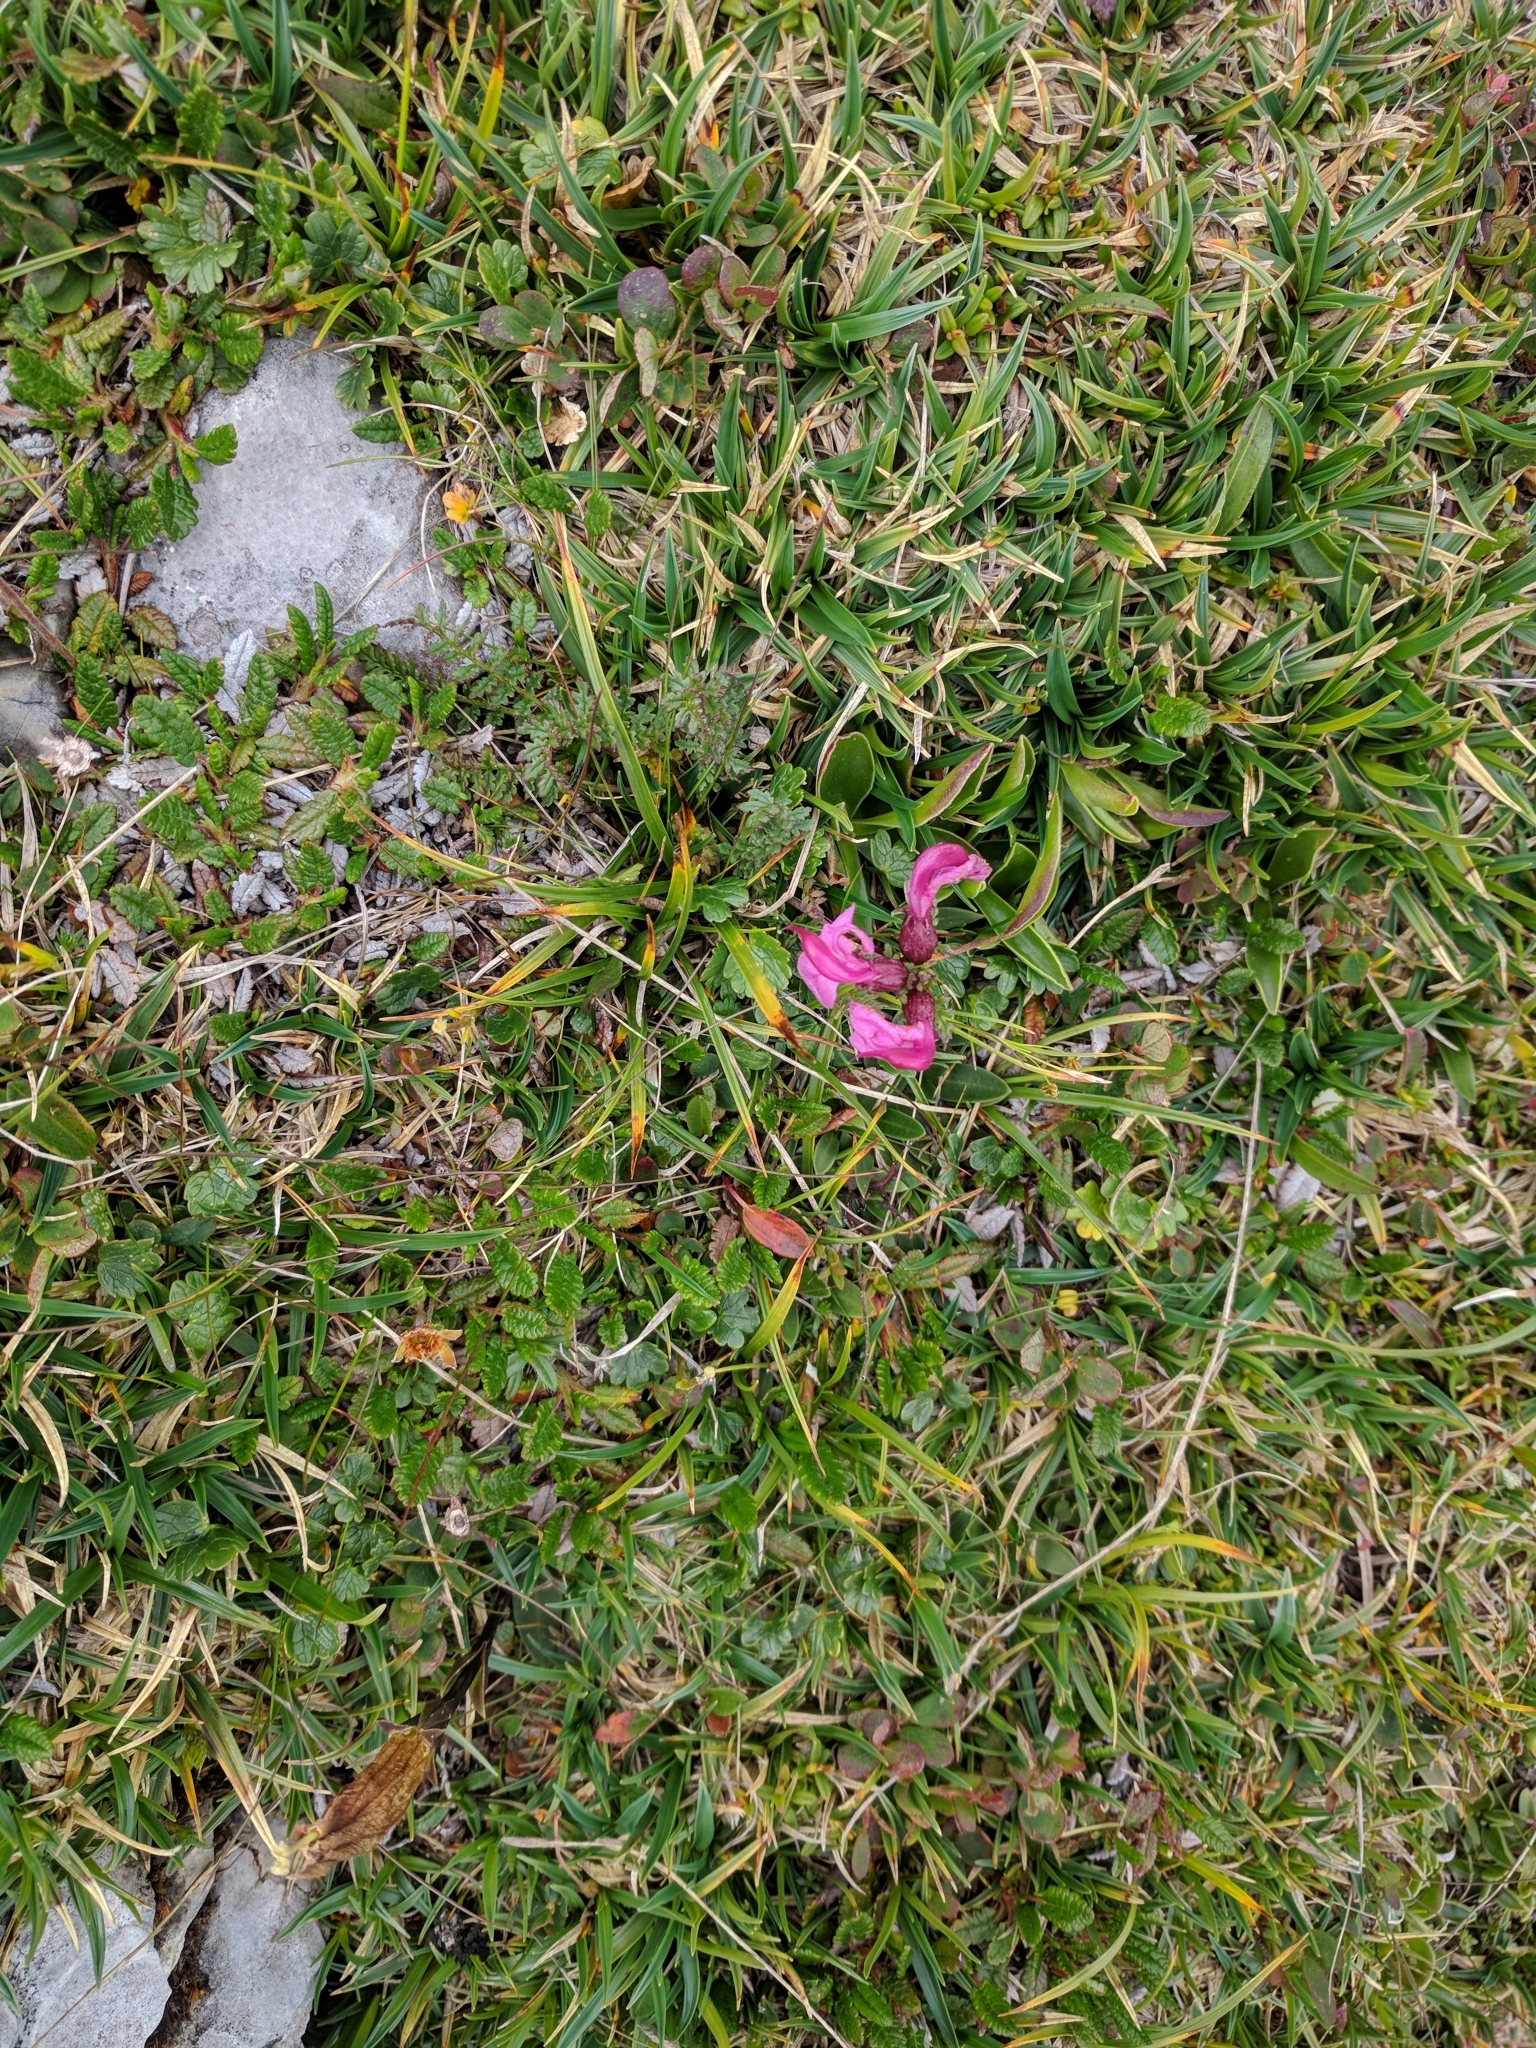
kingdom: Plantae
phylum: Tracheophyta
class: Magnoliopsida
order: Lamiales
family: Orobanchaceae
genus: Pedicularis
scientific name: Pedicularis rostratocapitata
